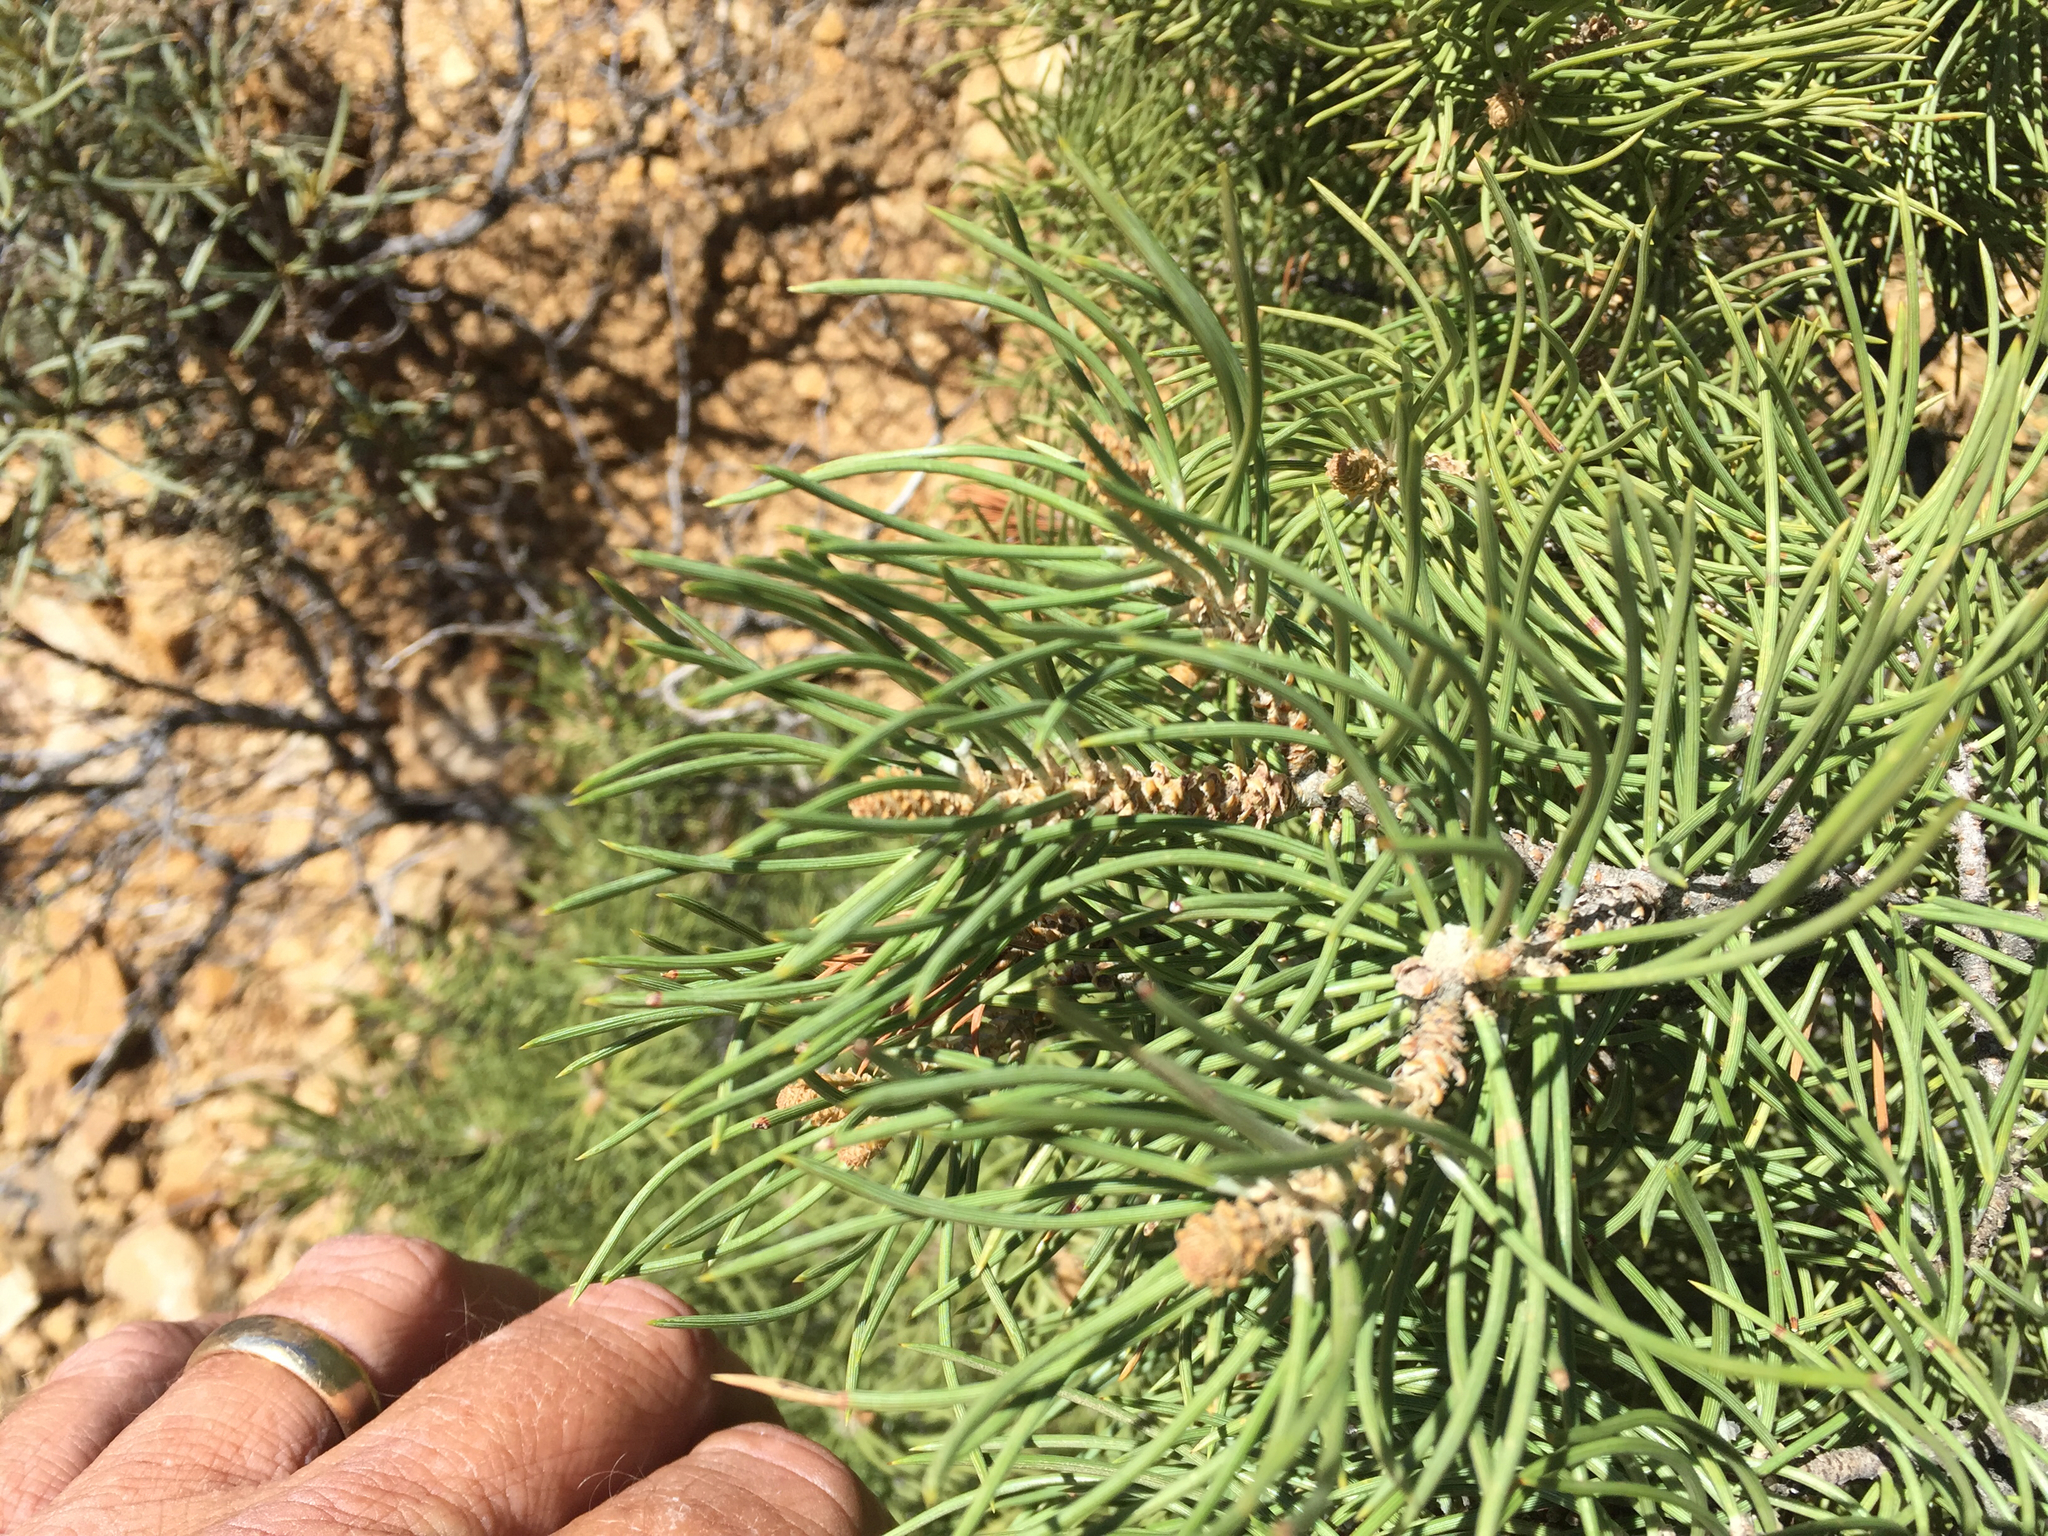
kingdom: Plantae
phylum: Tracheophyta
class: Pinopsida
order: Pinales
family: Pinaceae
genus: Pinus
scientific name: Pinus monophylla
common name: One-leaved nut pine
